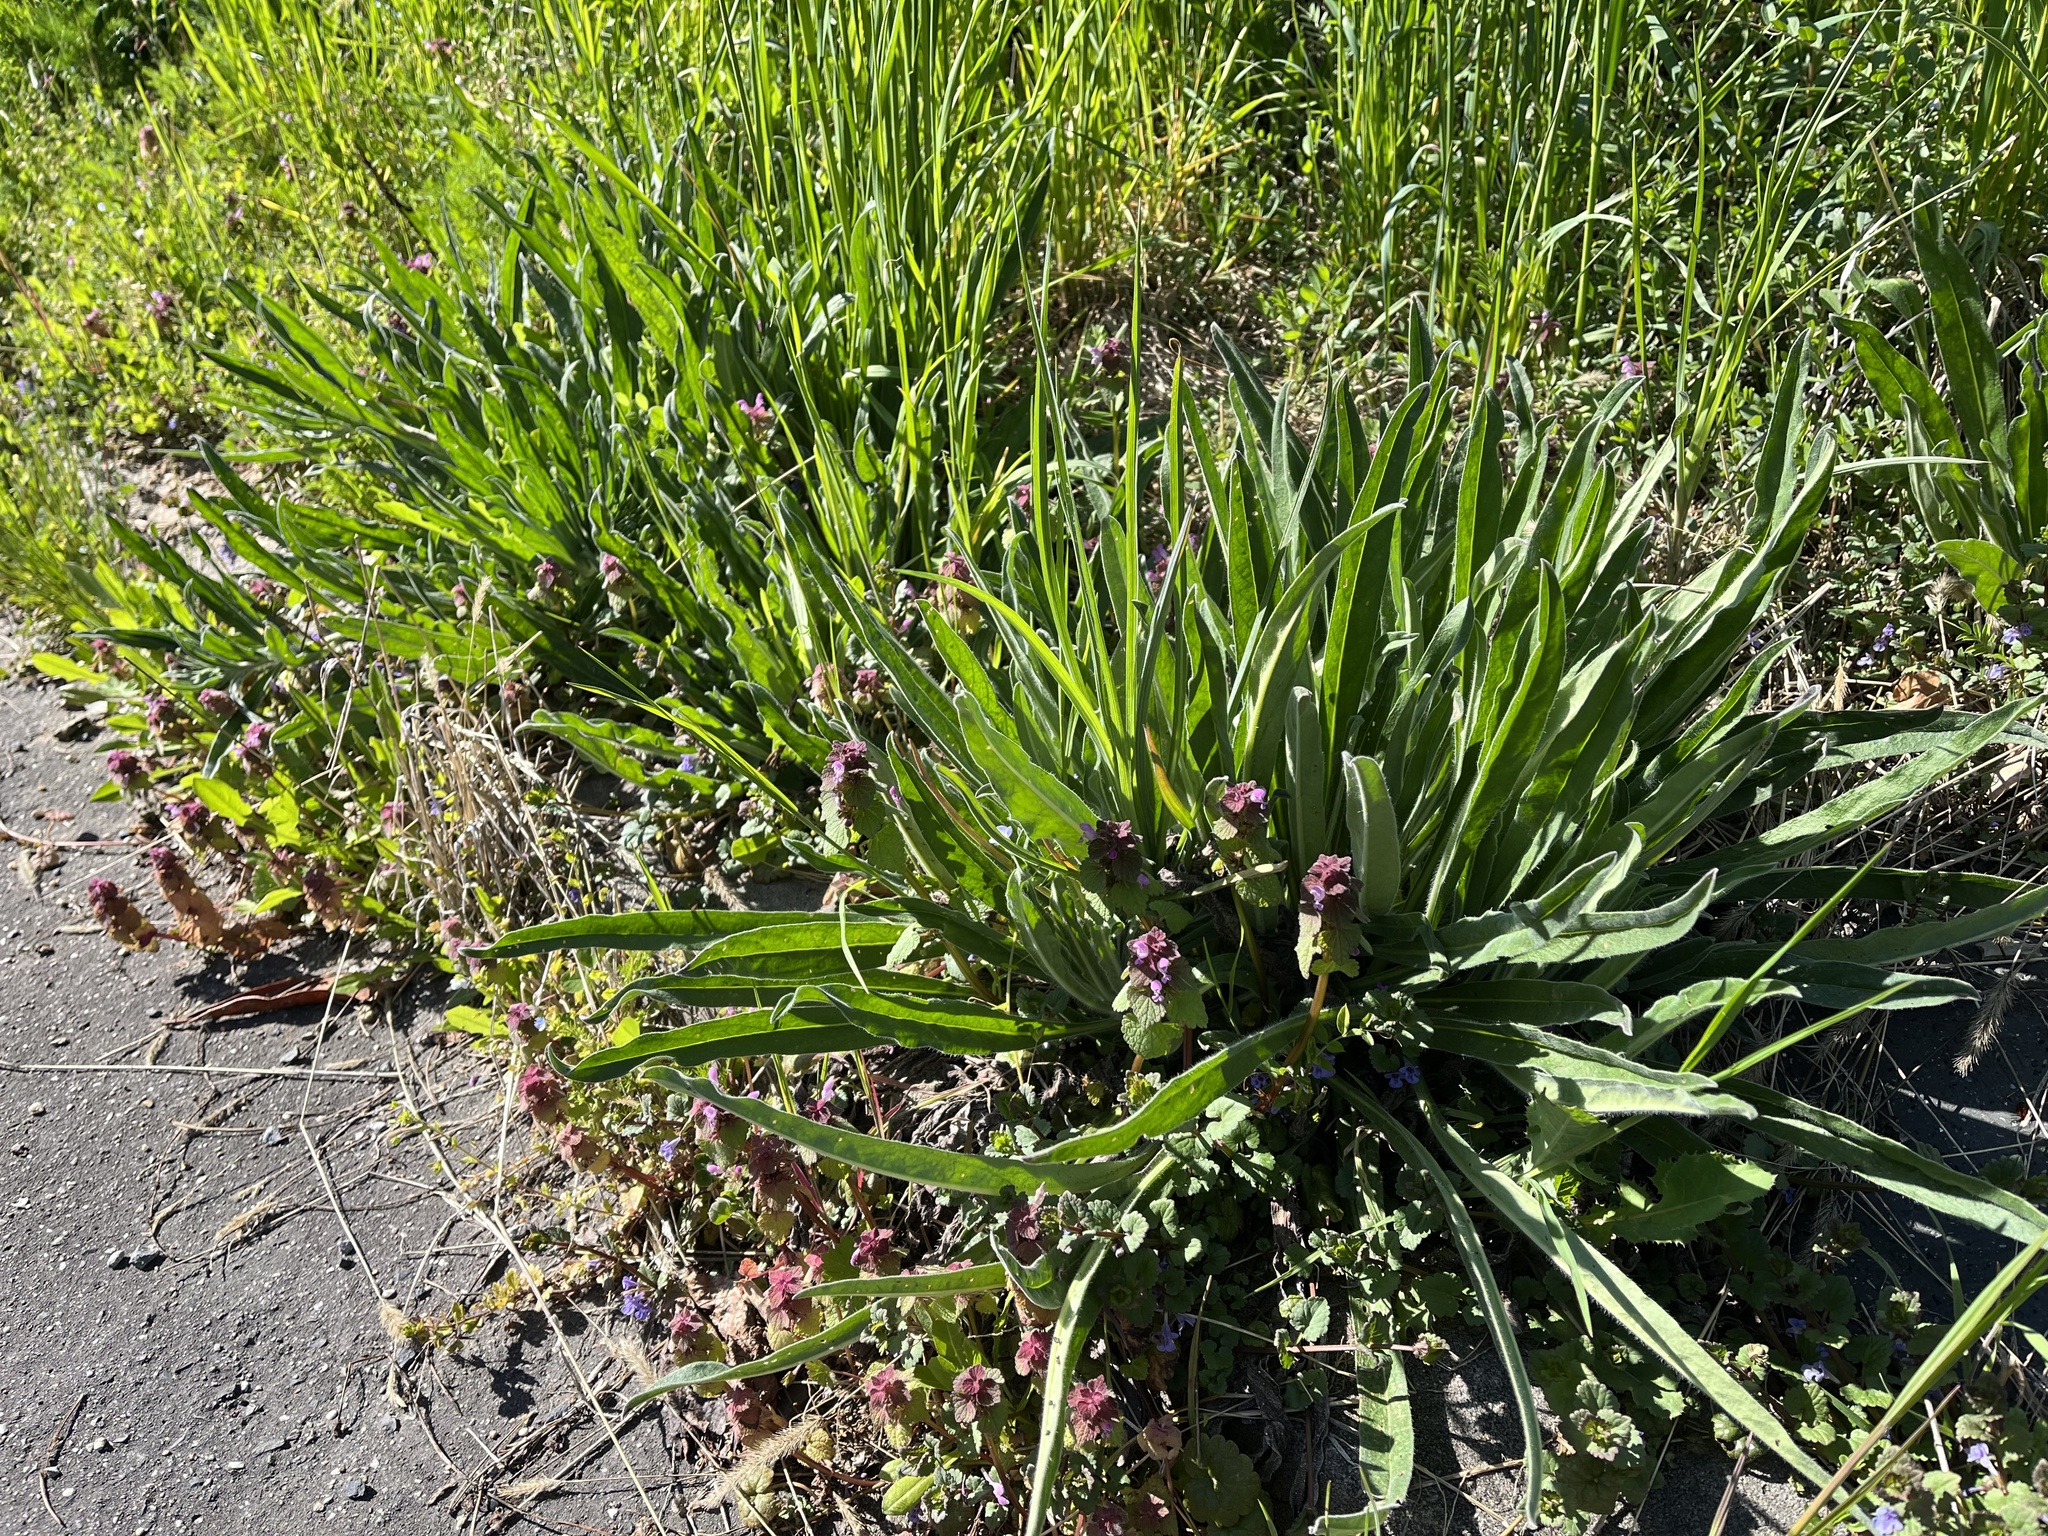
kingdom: Plantae
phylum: Tracheophyta
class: Magnoliopsida
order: Boraginales
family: Boraginaceae
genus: Echium
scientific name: Echium vulgare
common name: Common viper's bugloss
